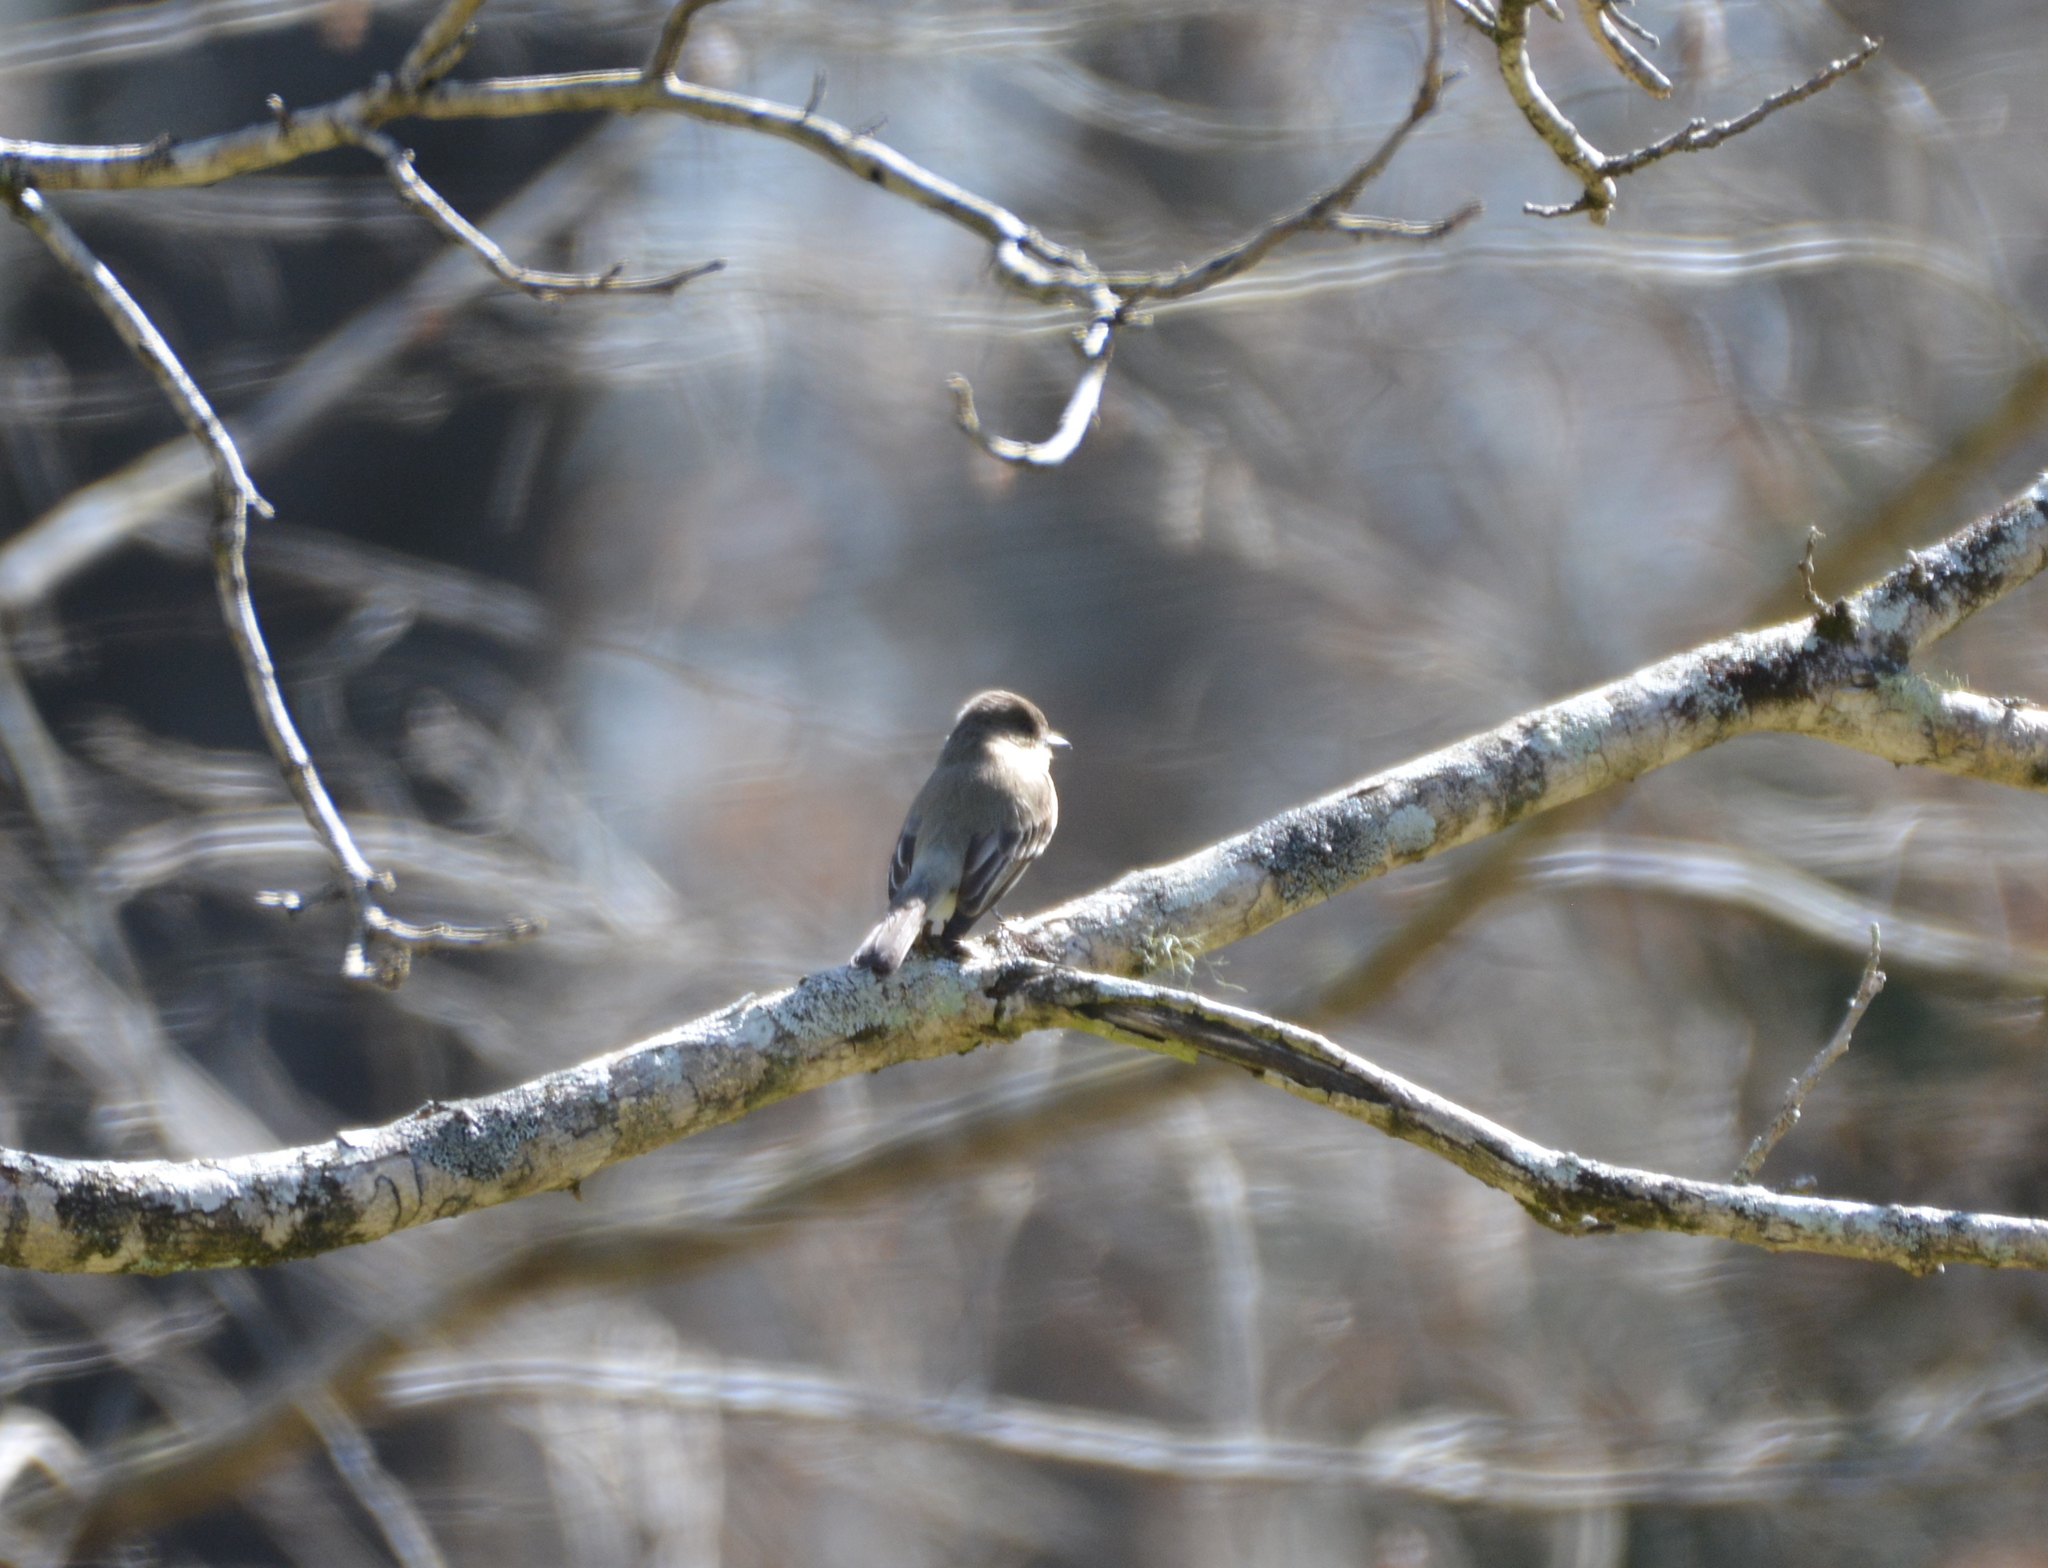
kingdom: Animalia
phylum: Chordata
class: Aves
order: Passeriformes
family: Tyrannidae
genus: Sayornis
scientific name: Sayornis phoebe
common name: Eastern phoebe
